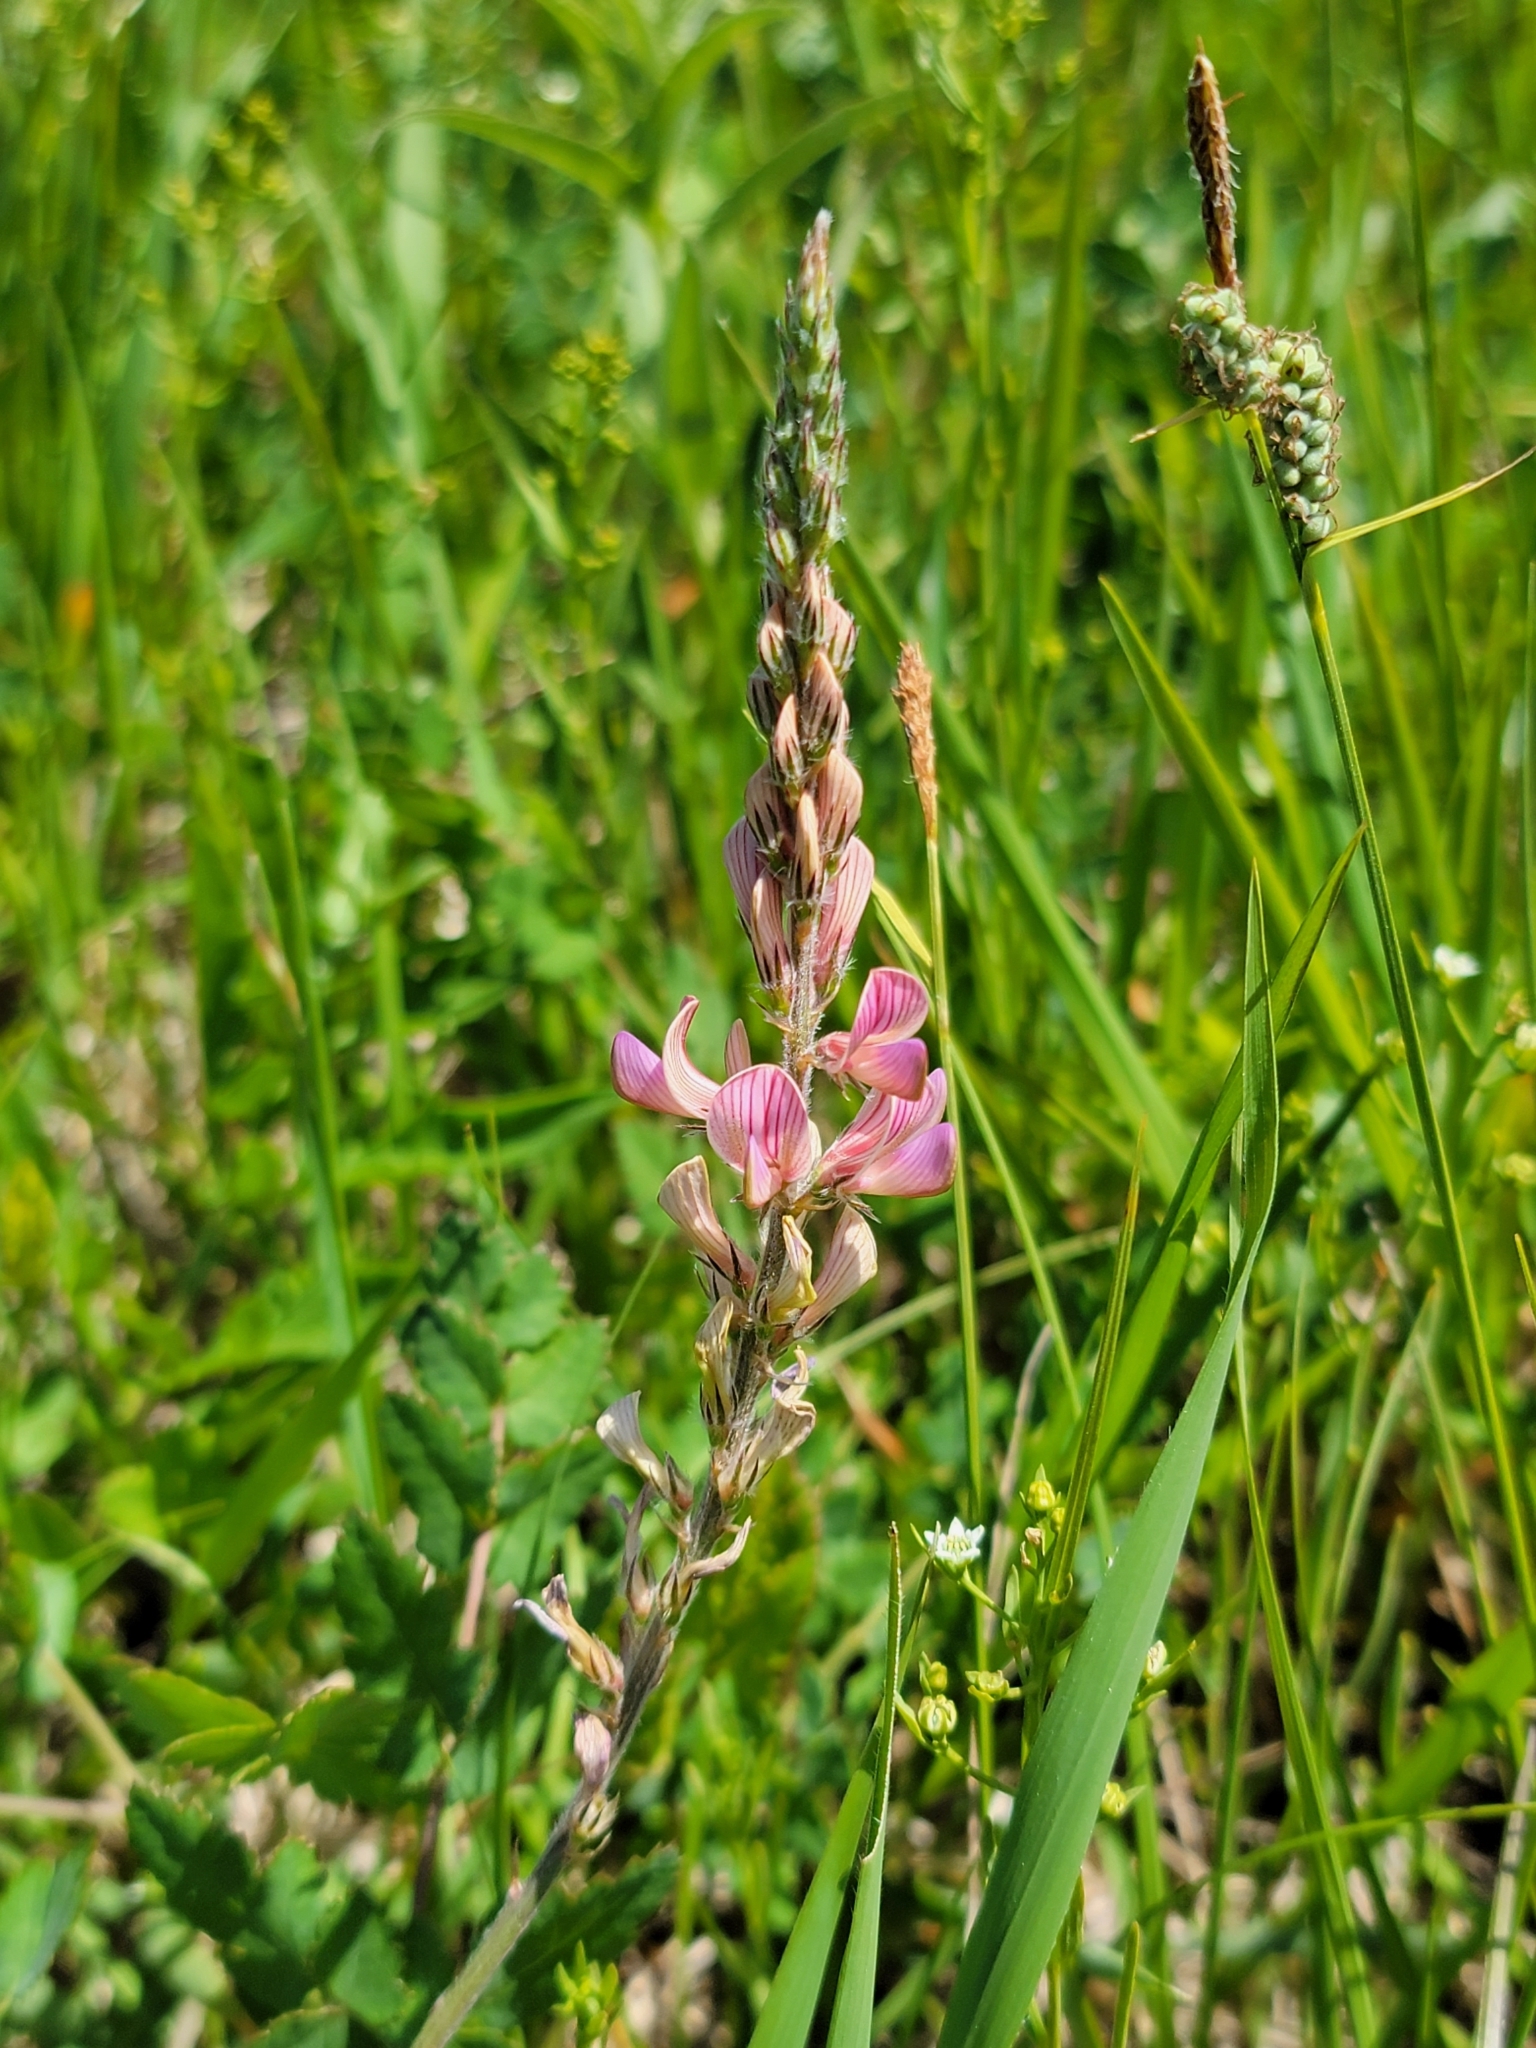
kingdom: Plantae
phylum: Tracheophyta
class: Magnoliopsida
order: Fabales
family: Fabaceae
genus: Onobrychis
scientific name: Onobrychis viciifolia
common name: Sainfoin
